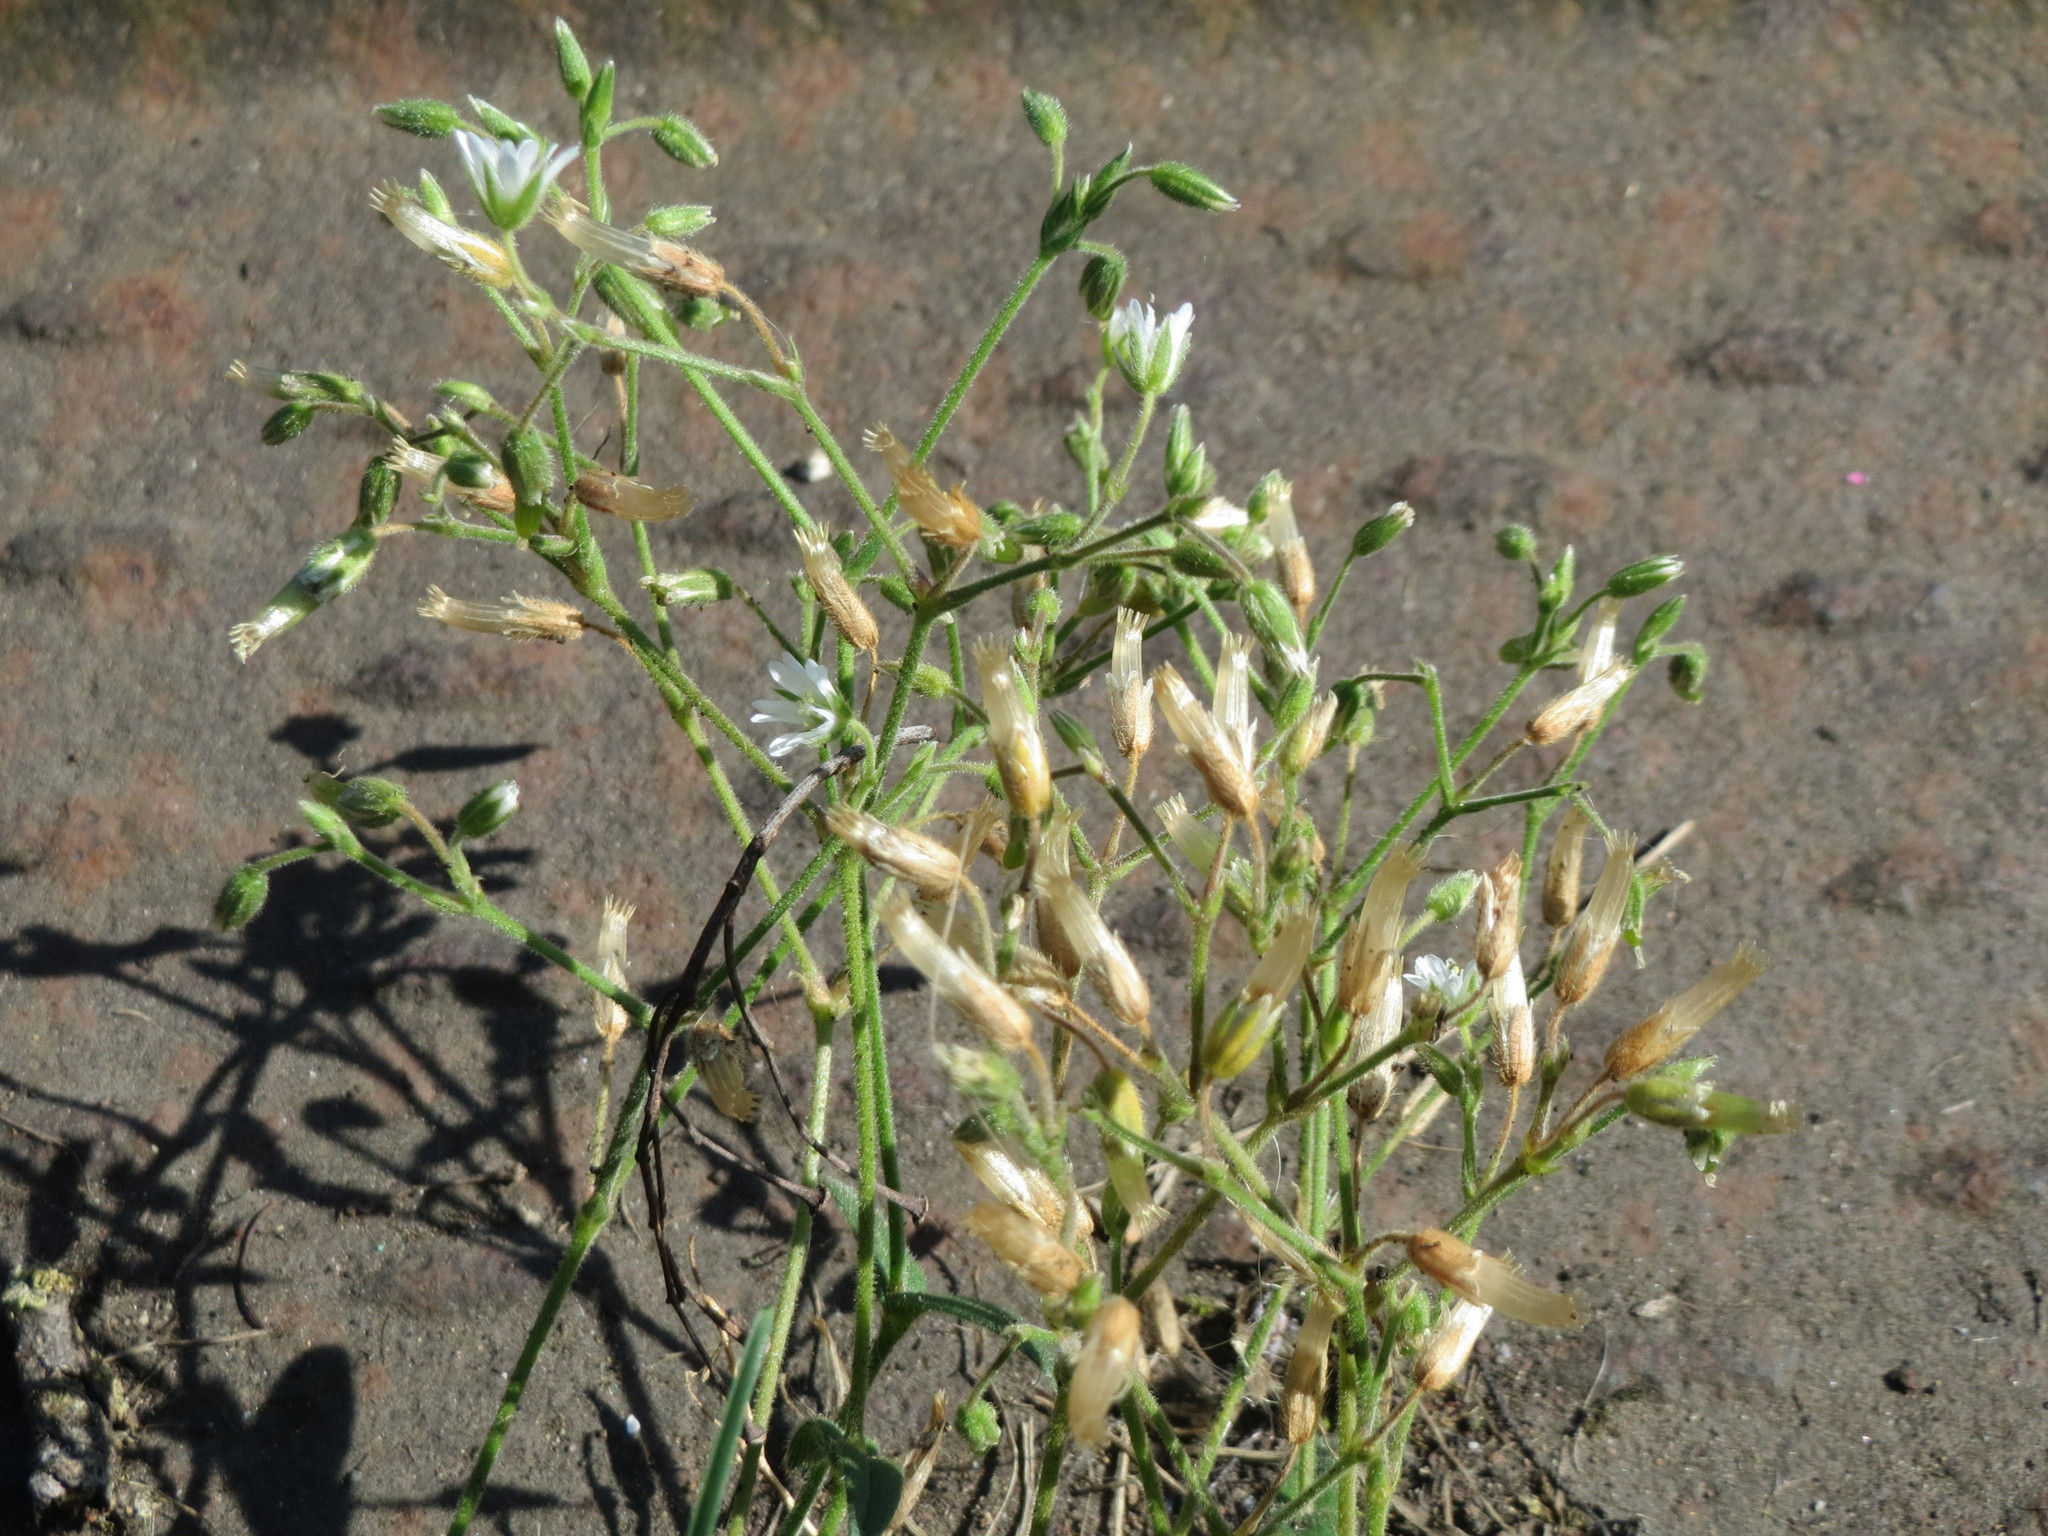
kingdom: Plantae
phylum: Tracheophyta
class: Magnoliopsida
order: Caryophyllales
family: Caryophyllaceae
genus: Cerastium
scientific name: Cerastium holosteoides
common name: Big chickweed
